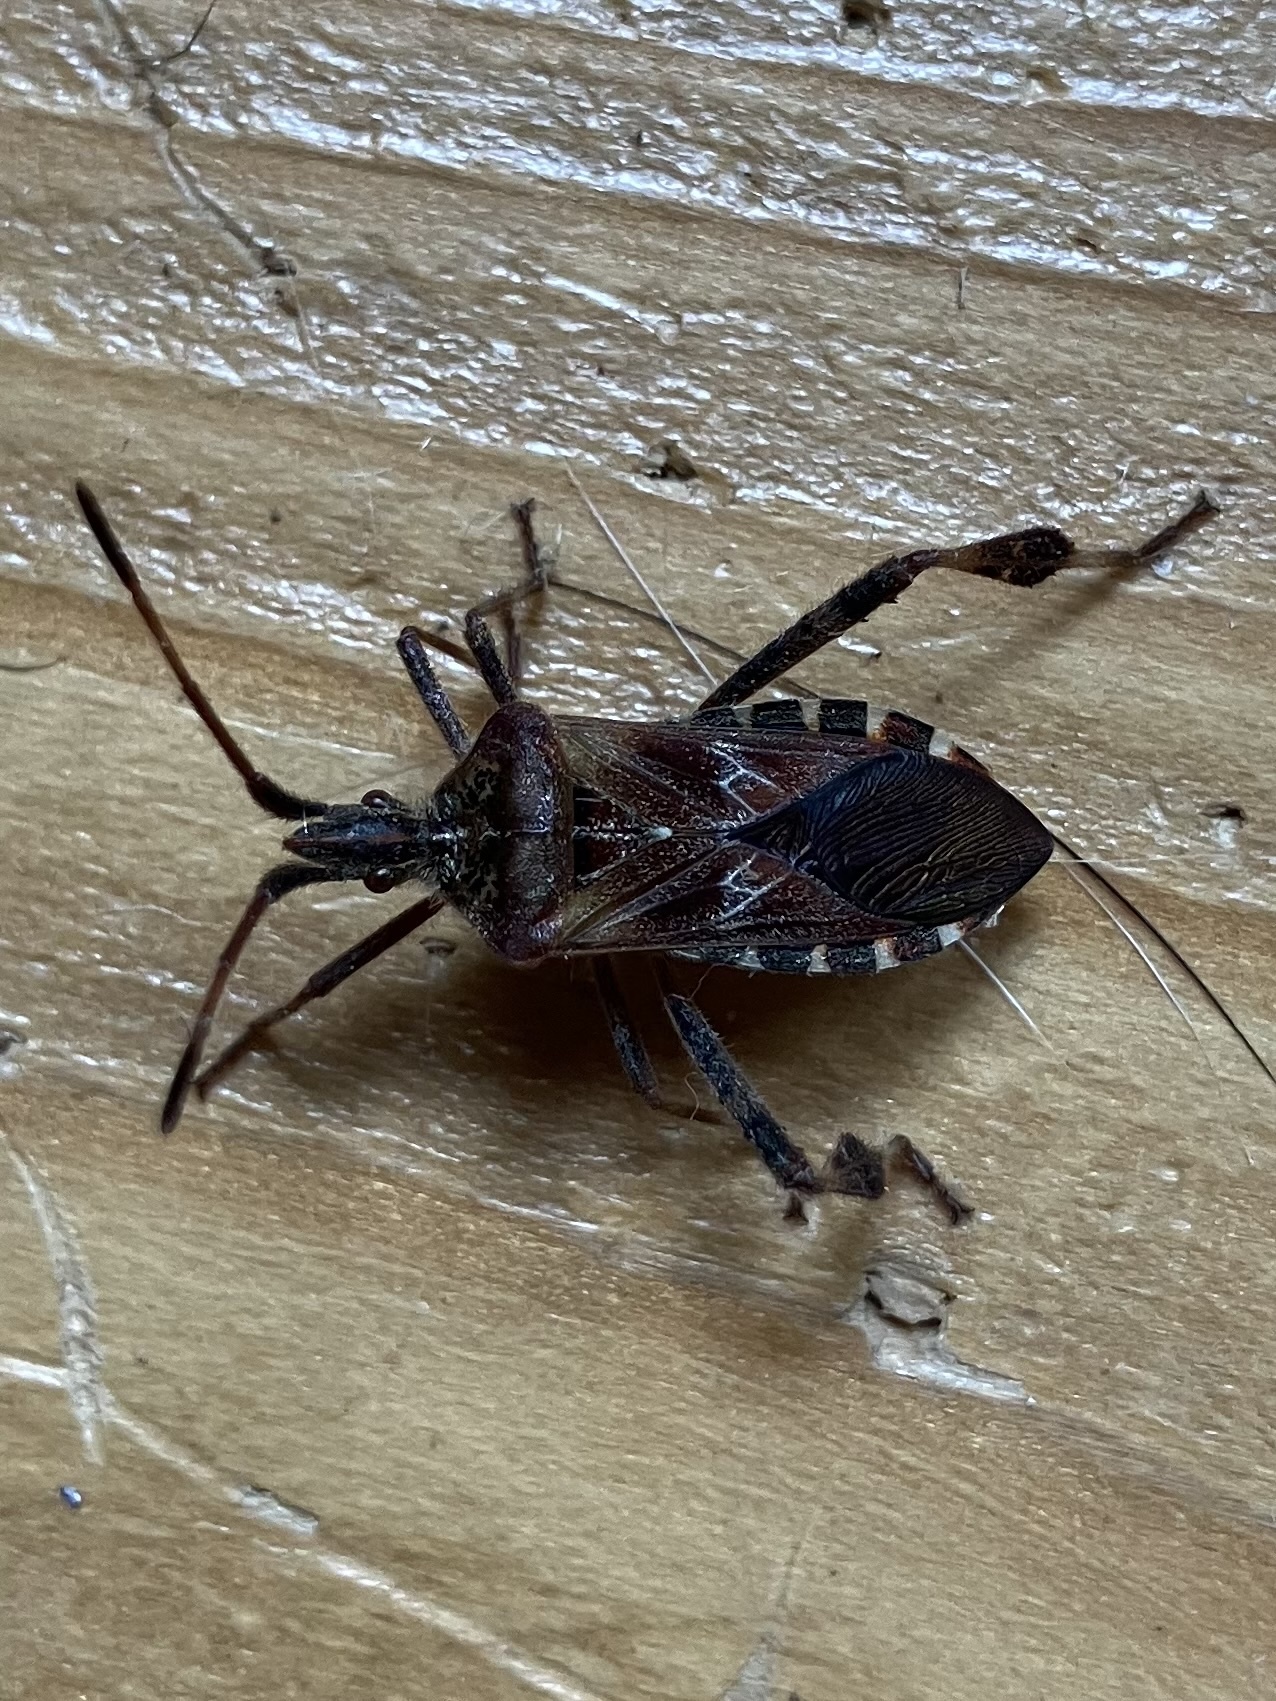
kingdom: Animalia
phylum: Arthropoda
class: Insecta
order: Hemiptera
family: Coreidae
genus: Leptoglossus
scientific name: Leptoglossus occidentalis
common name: Western conifer-seed bug
